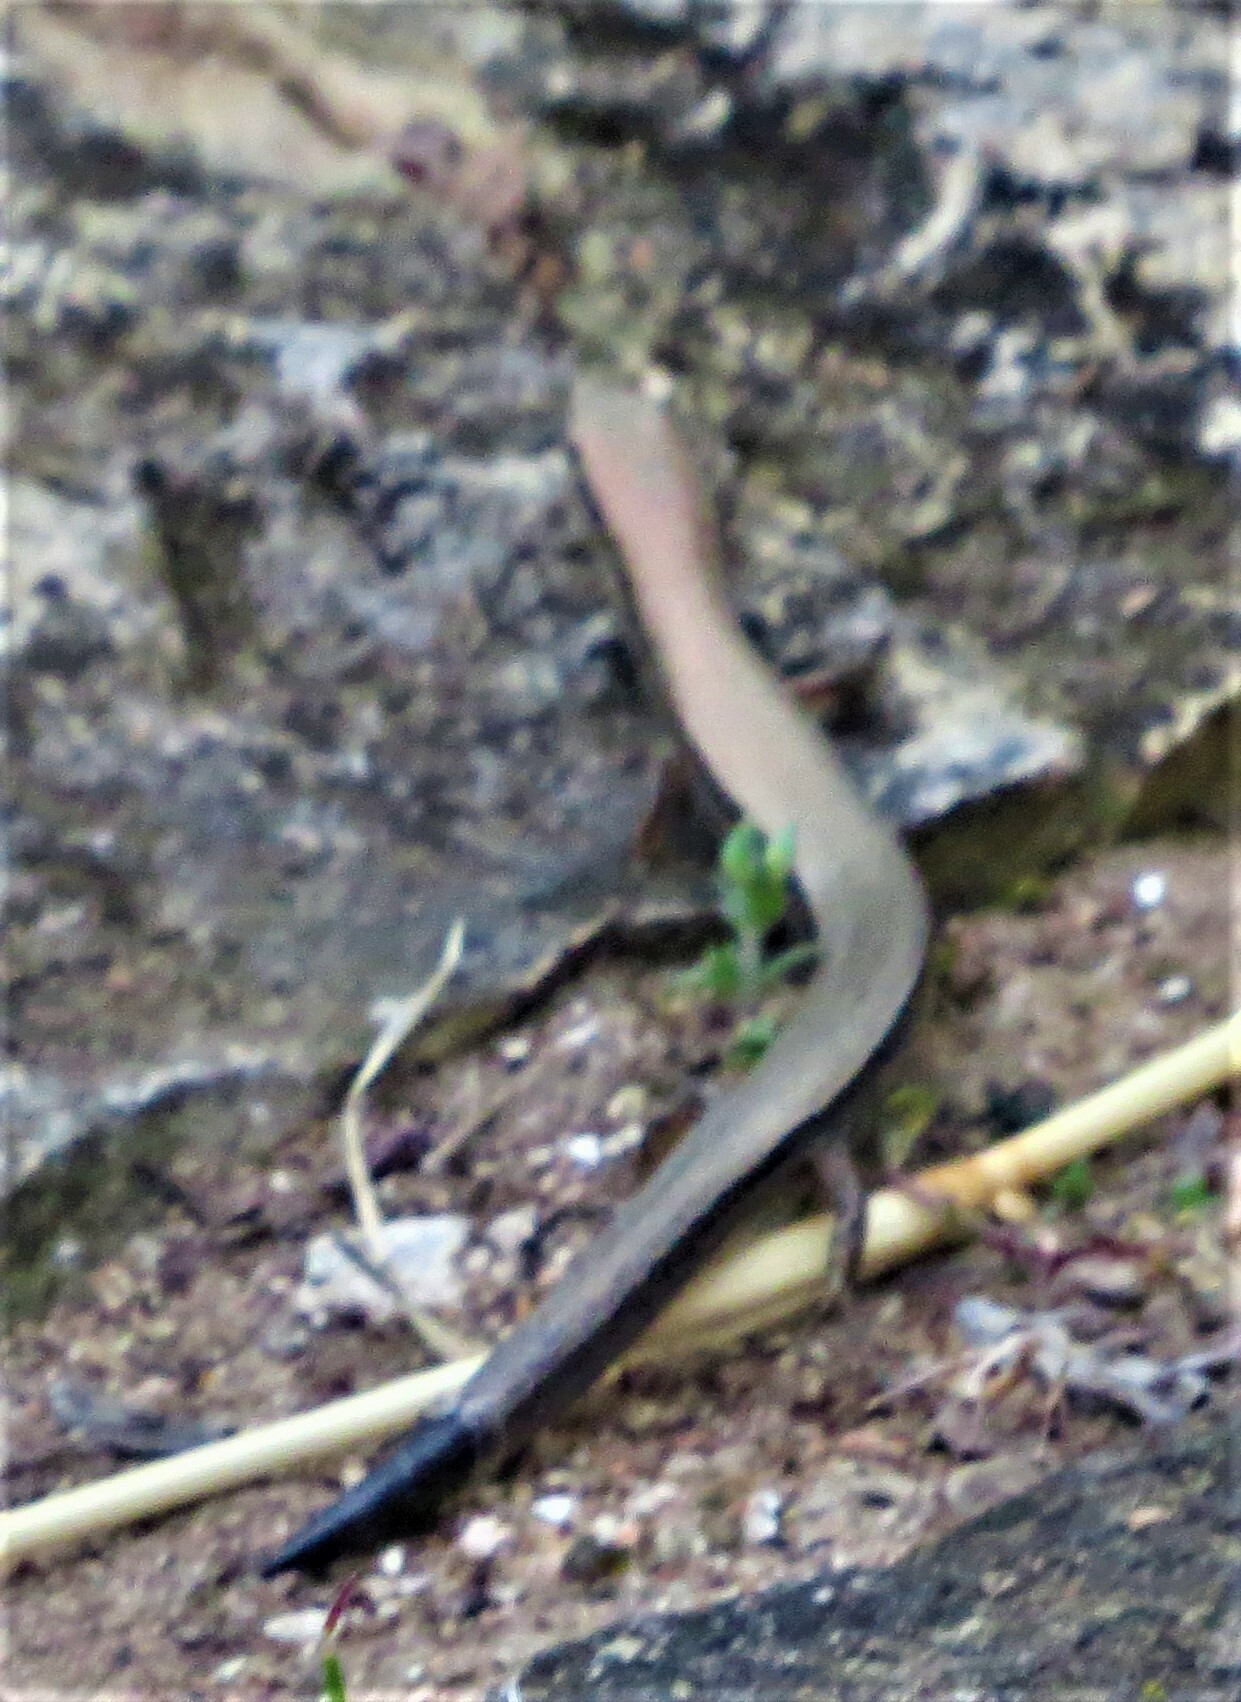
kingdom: Animalia
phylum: Chordata
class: Squamata
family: Scincidae
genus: Scincella
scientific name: Scincella lateralis
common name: Ground skink
